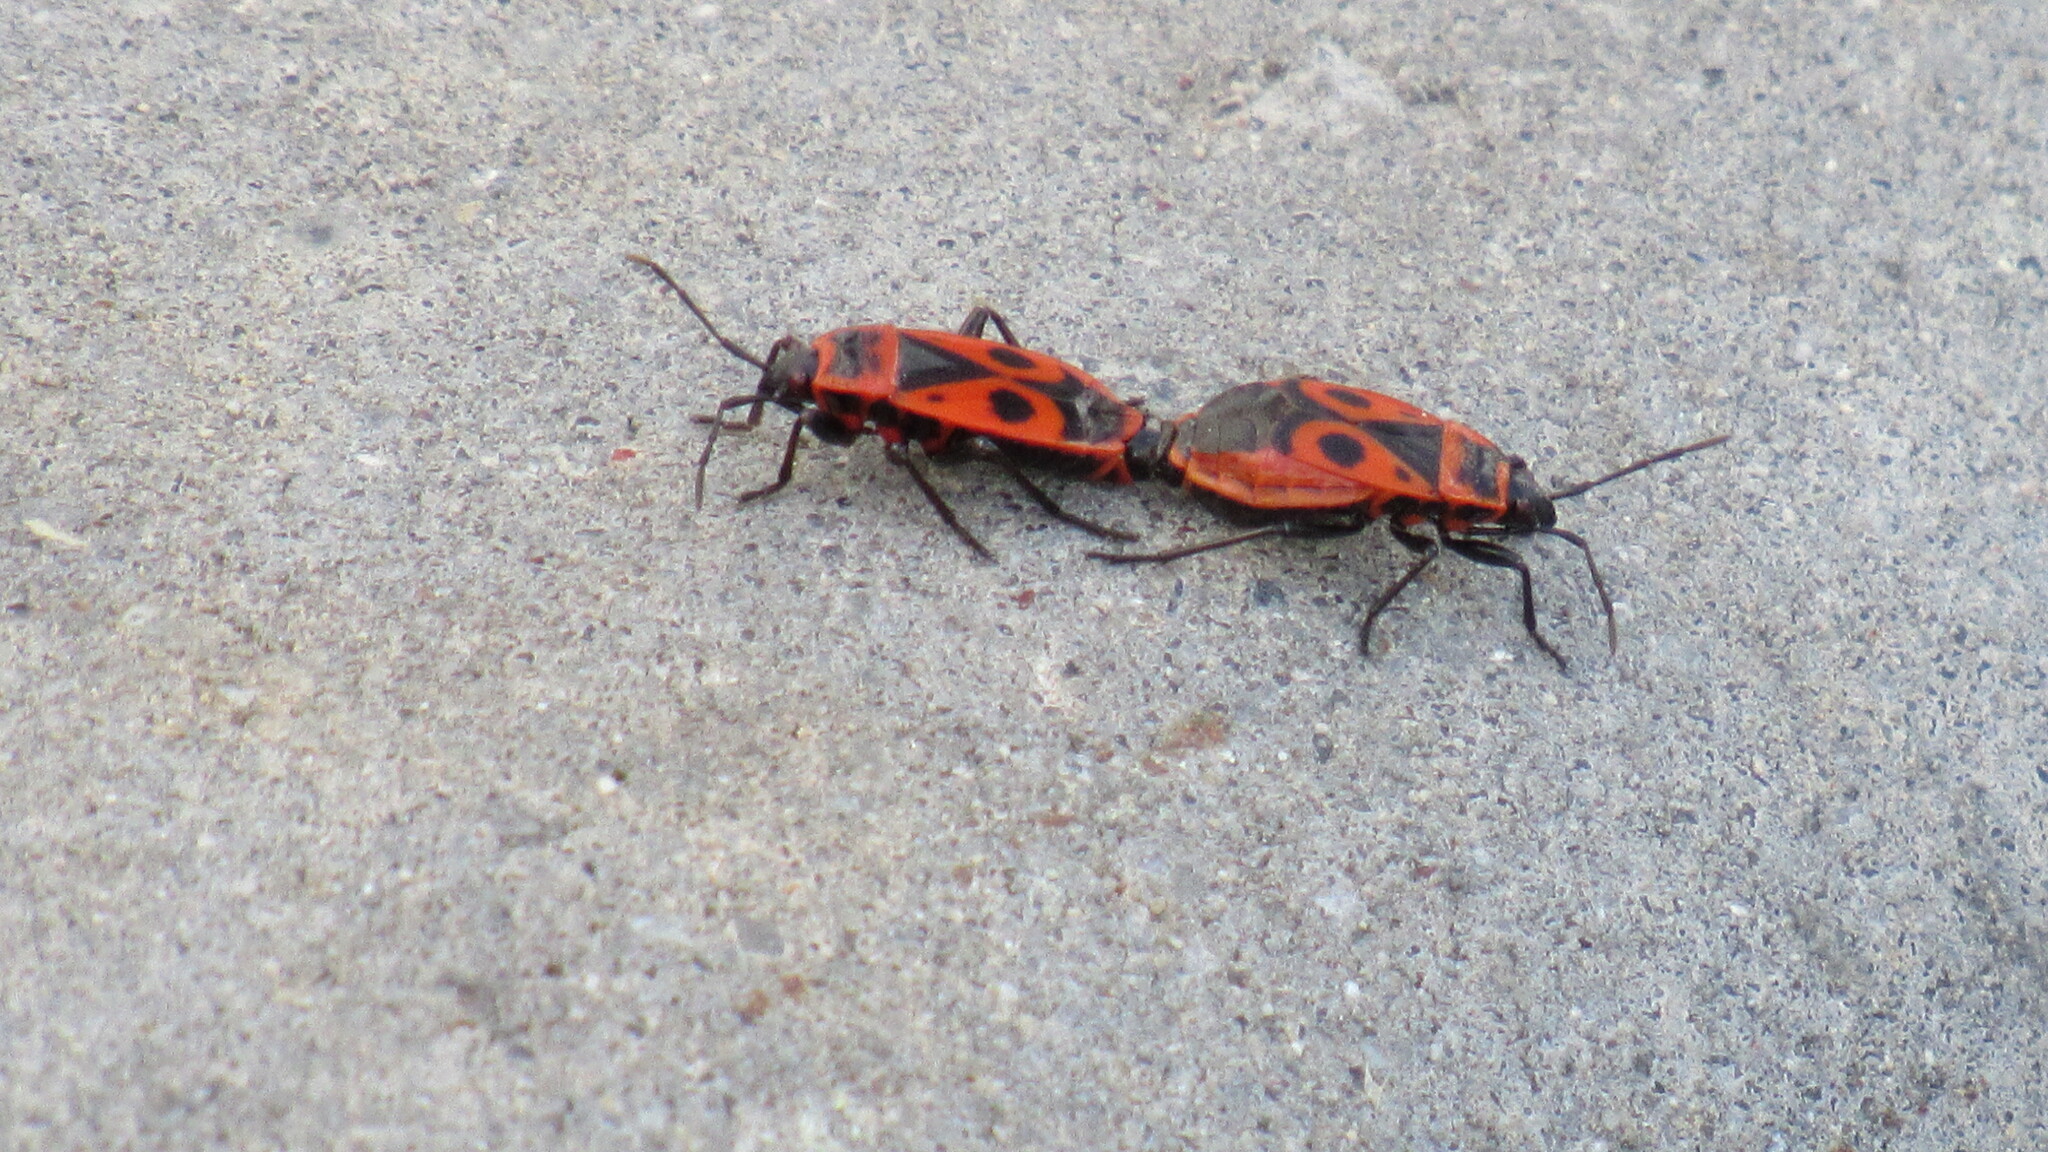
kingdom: Animalia
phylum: Arthropoda
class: Insecta
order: Hemiptera
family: Pyrrhocoridae
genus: Pyrrhocoris
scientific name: Pyrrhocoris apterus
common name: Firebug
